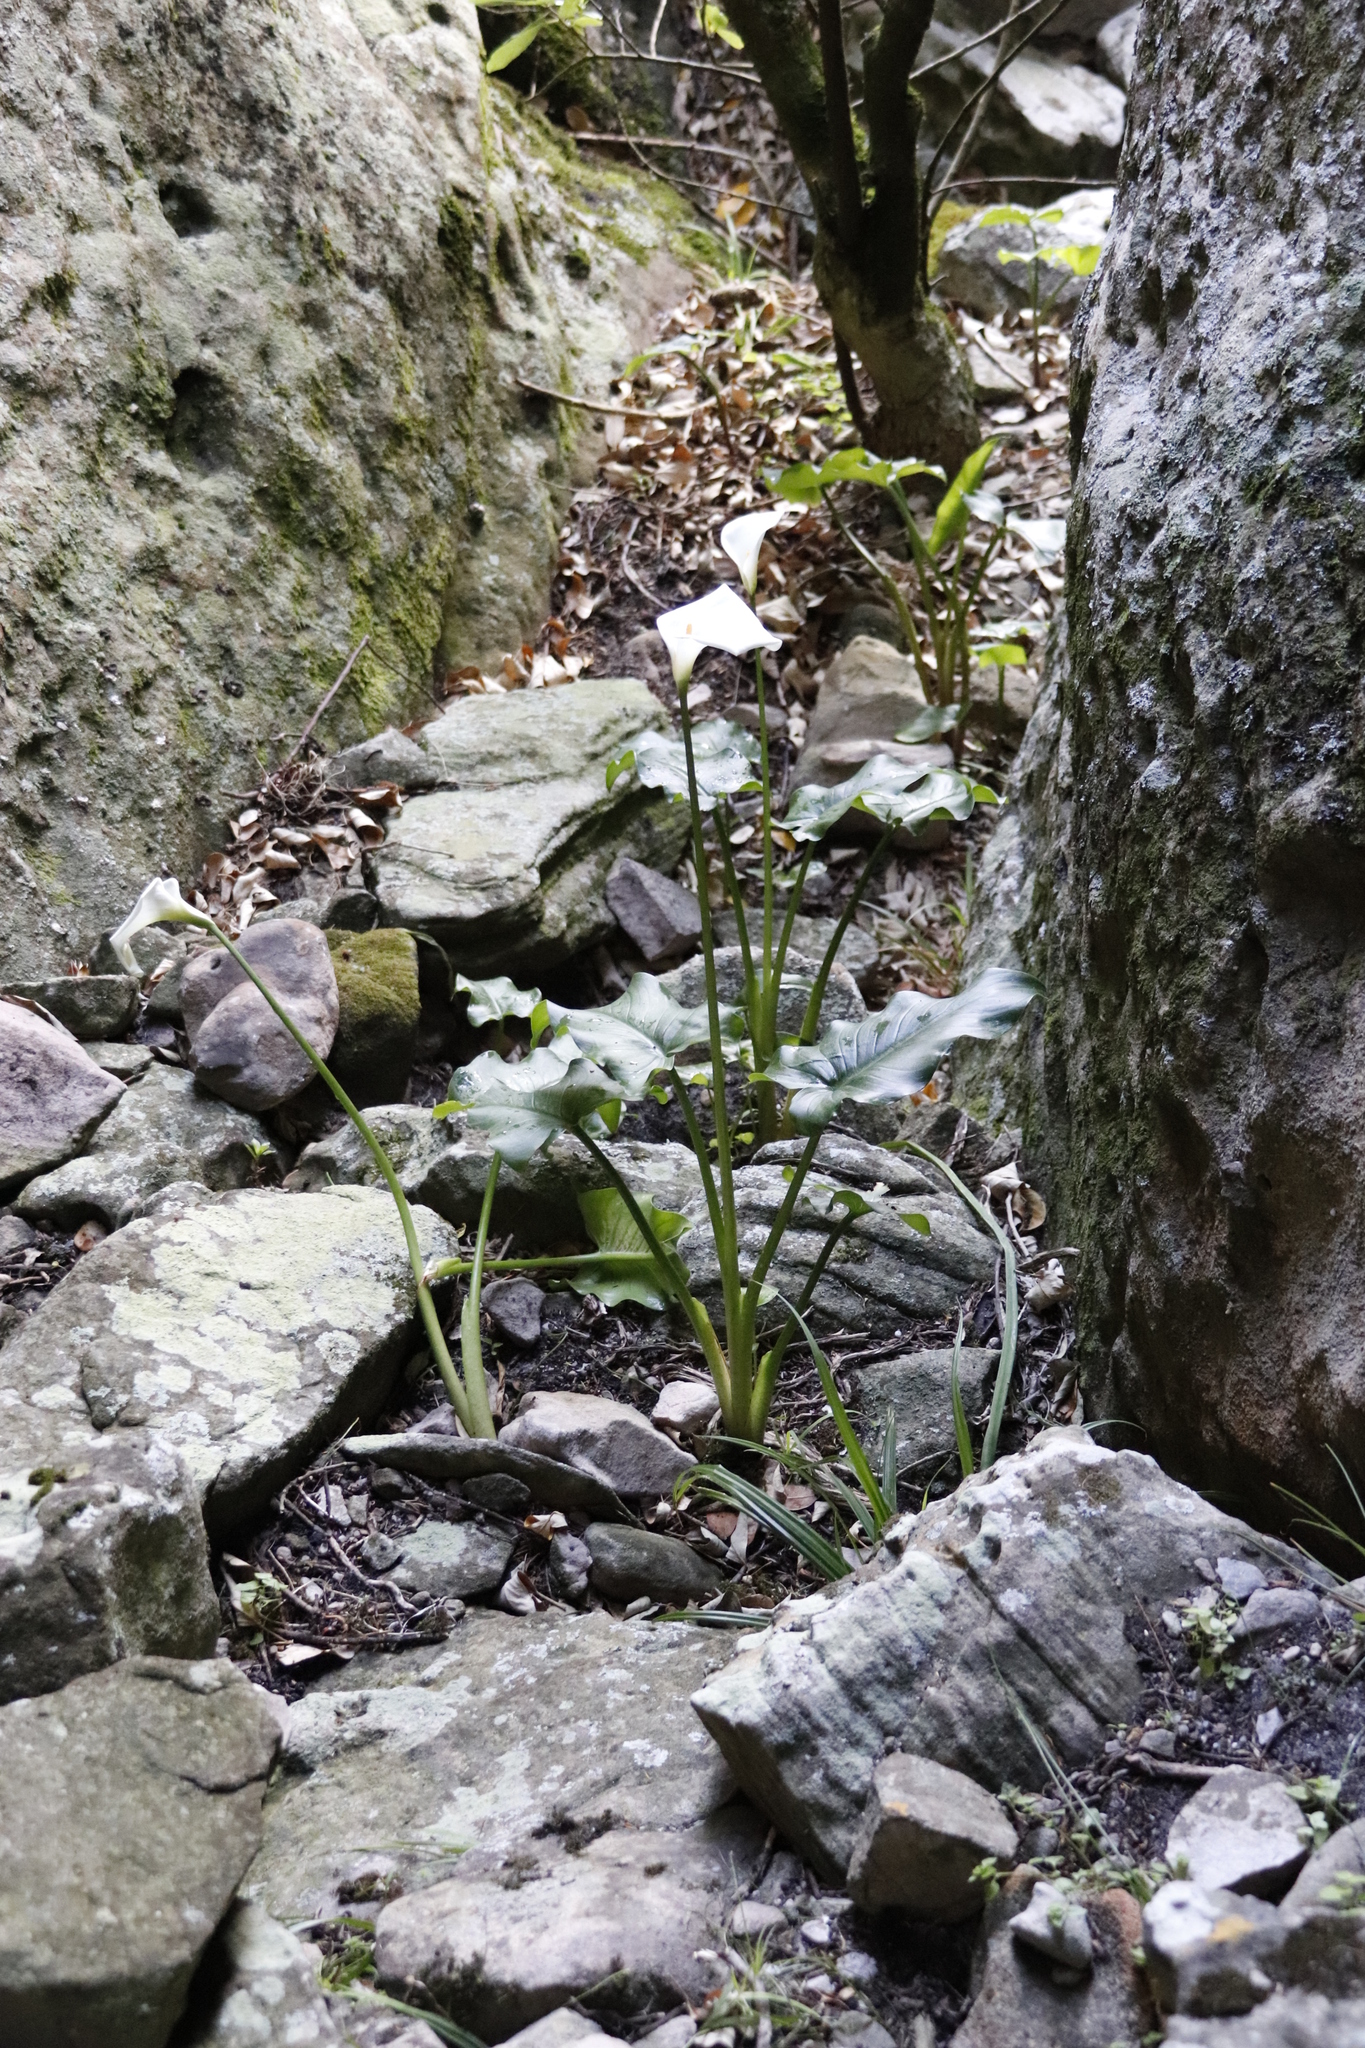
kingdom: Plantae
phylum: Tracheophyta
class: Liliopsida
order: Alismatales
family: Araceae
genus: Zantedeschia
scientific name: Zantedeschia aethiopica
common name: Altar-lily
